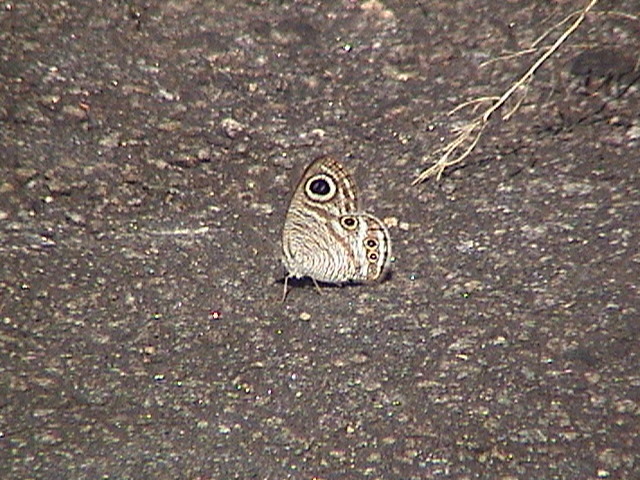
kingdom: Animalia
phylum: Arthropoda
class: Insecta
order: Lepidoptera
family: Nymphalidae
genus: Ypthima
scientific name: Ypthima avanta
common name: Jewel five-ring
